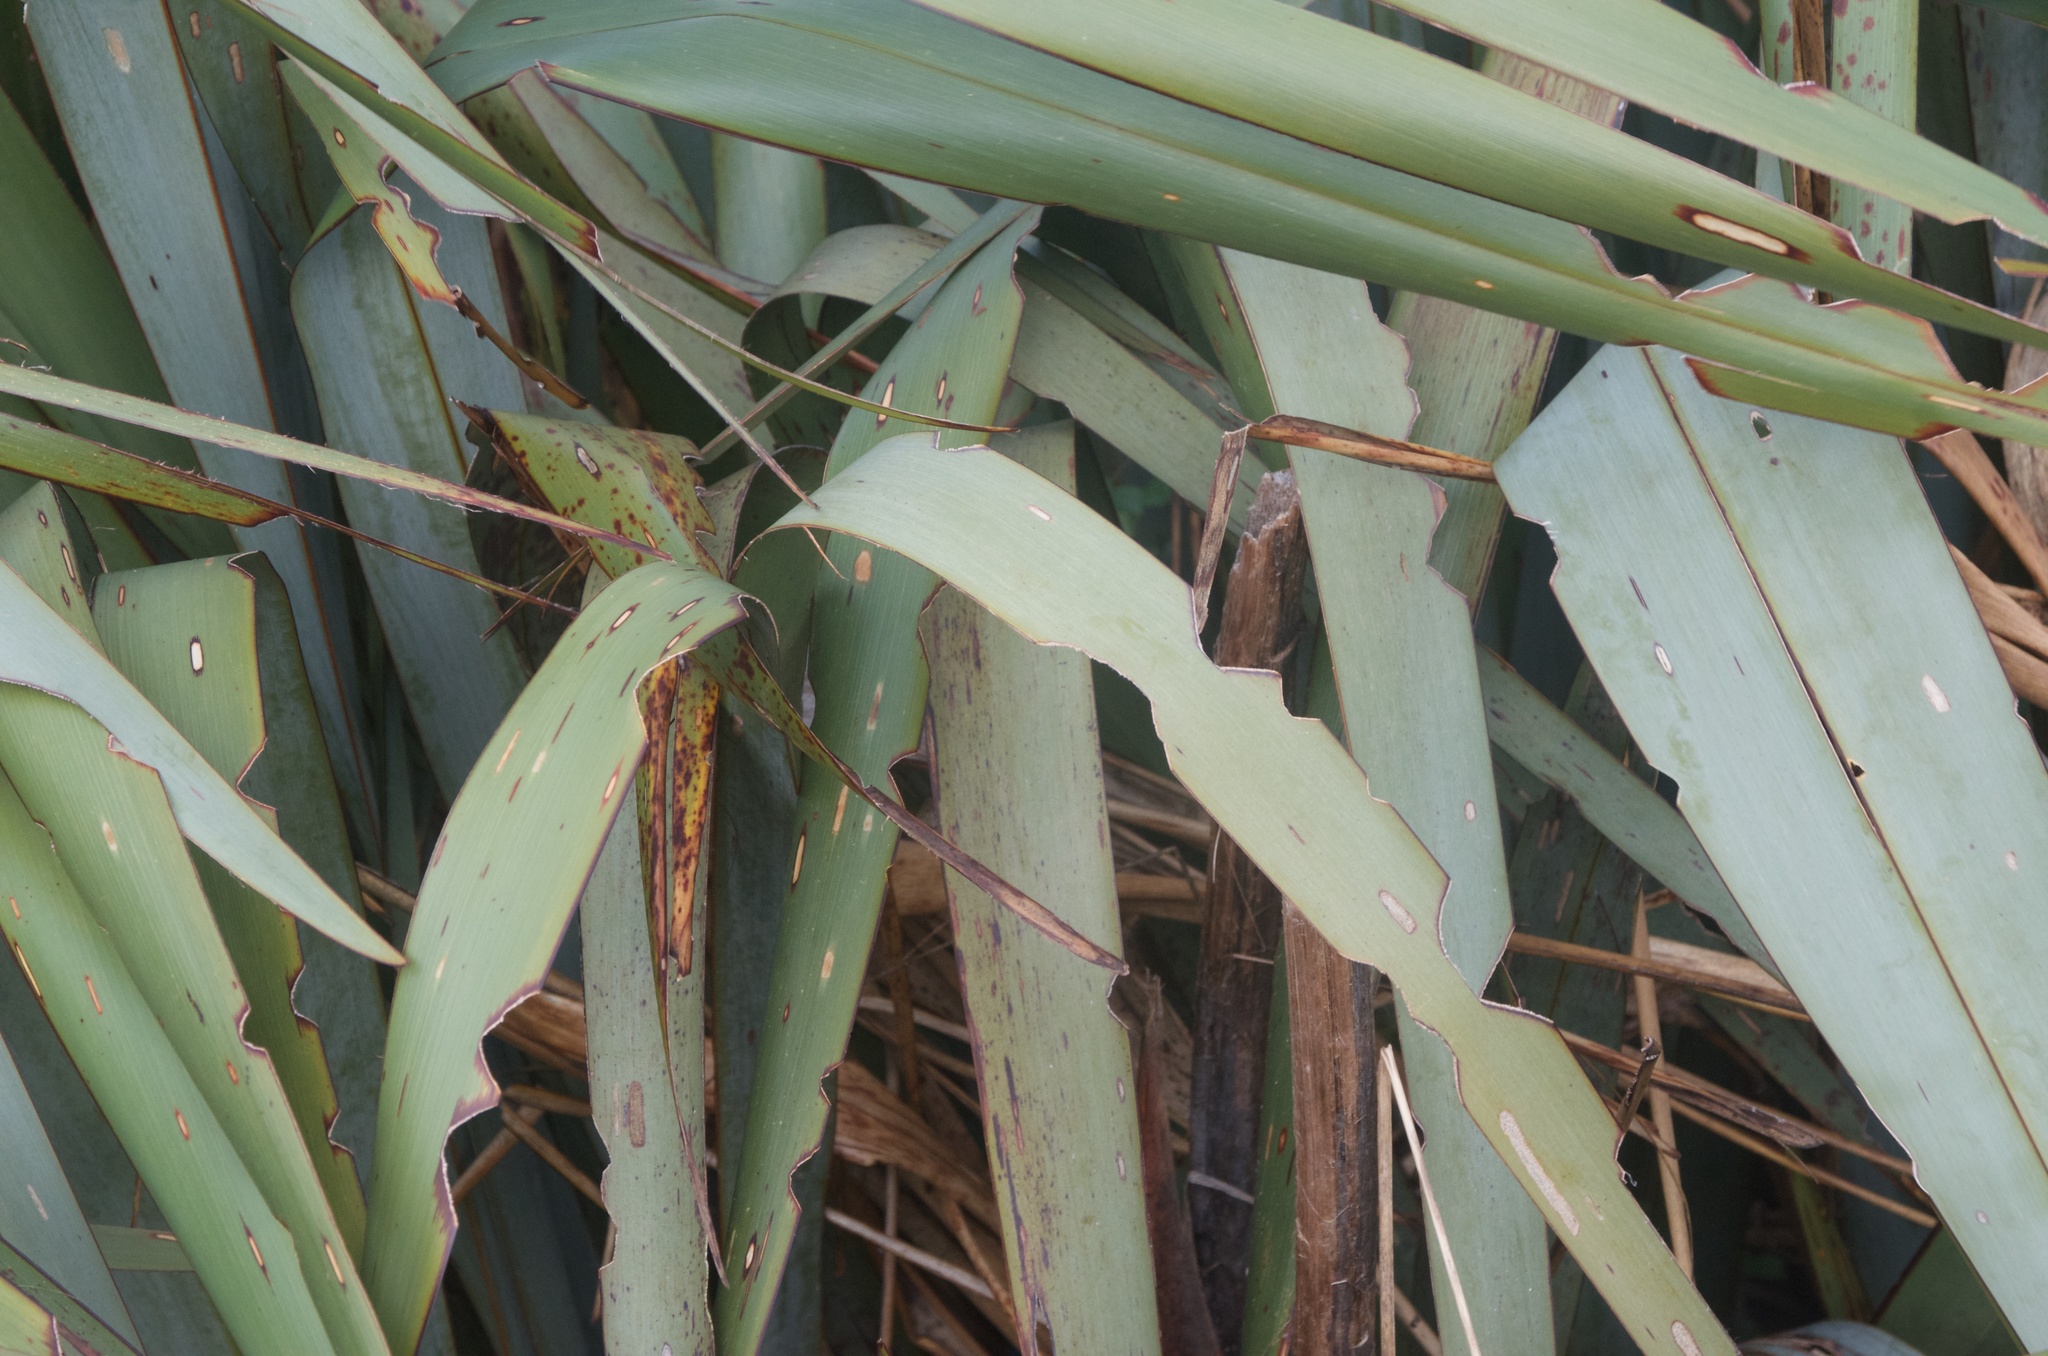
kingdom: Animalia
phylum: Arthropoda
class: Insecta
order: Lepidoptera
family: Noctuidae
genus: Ichneutica
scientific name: Ichneutica
